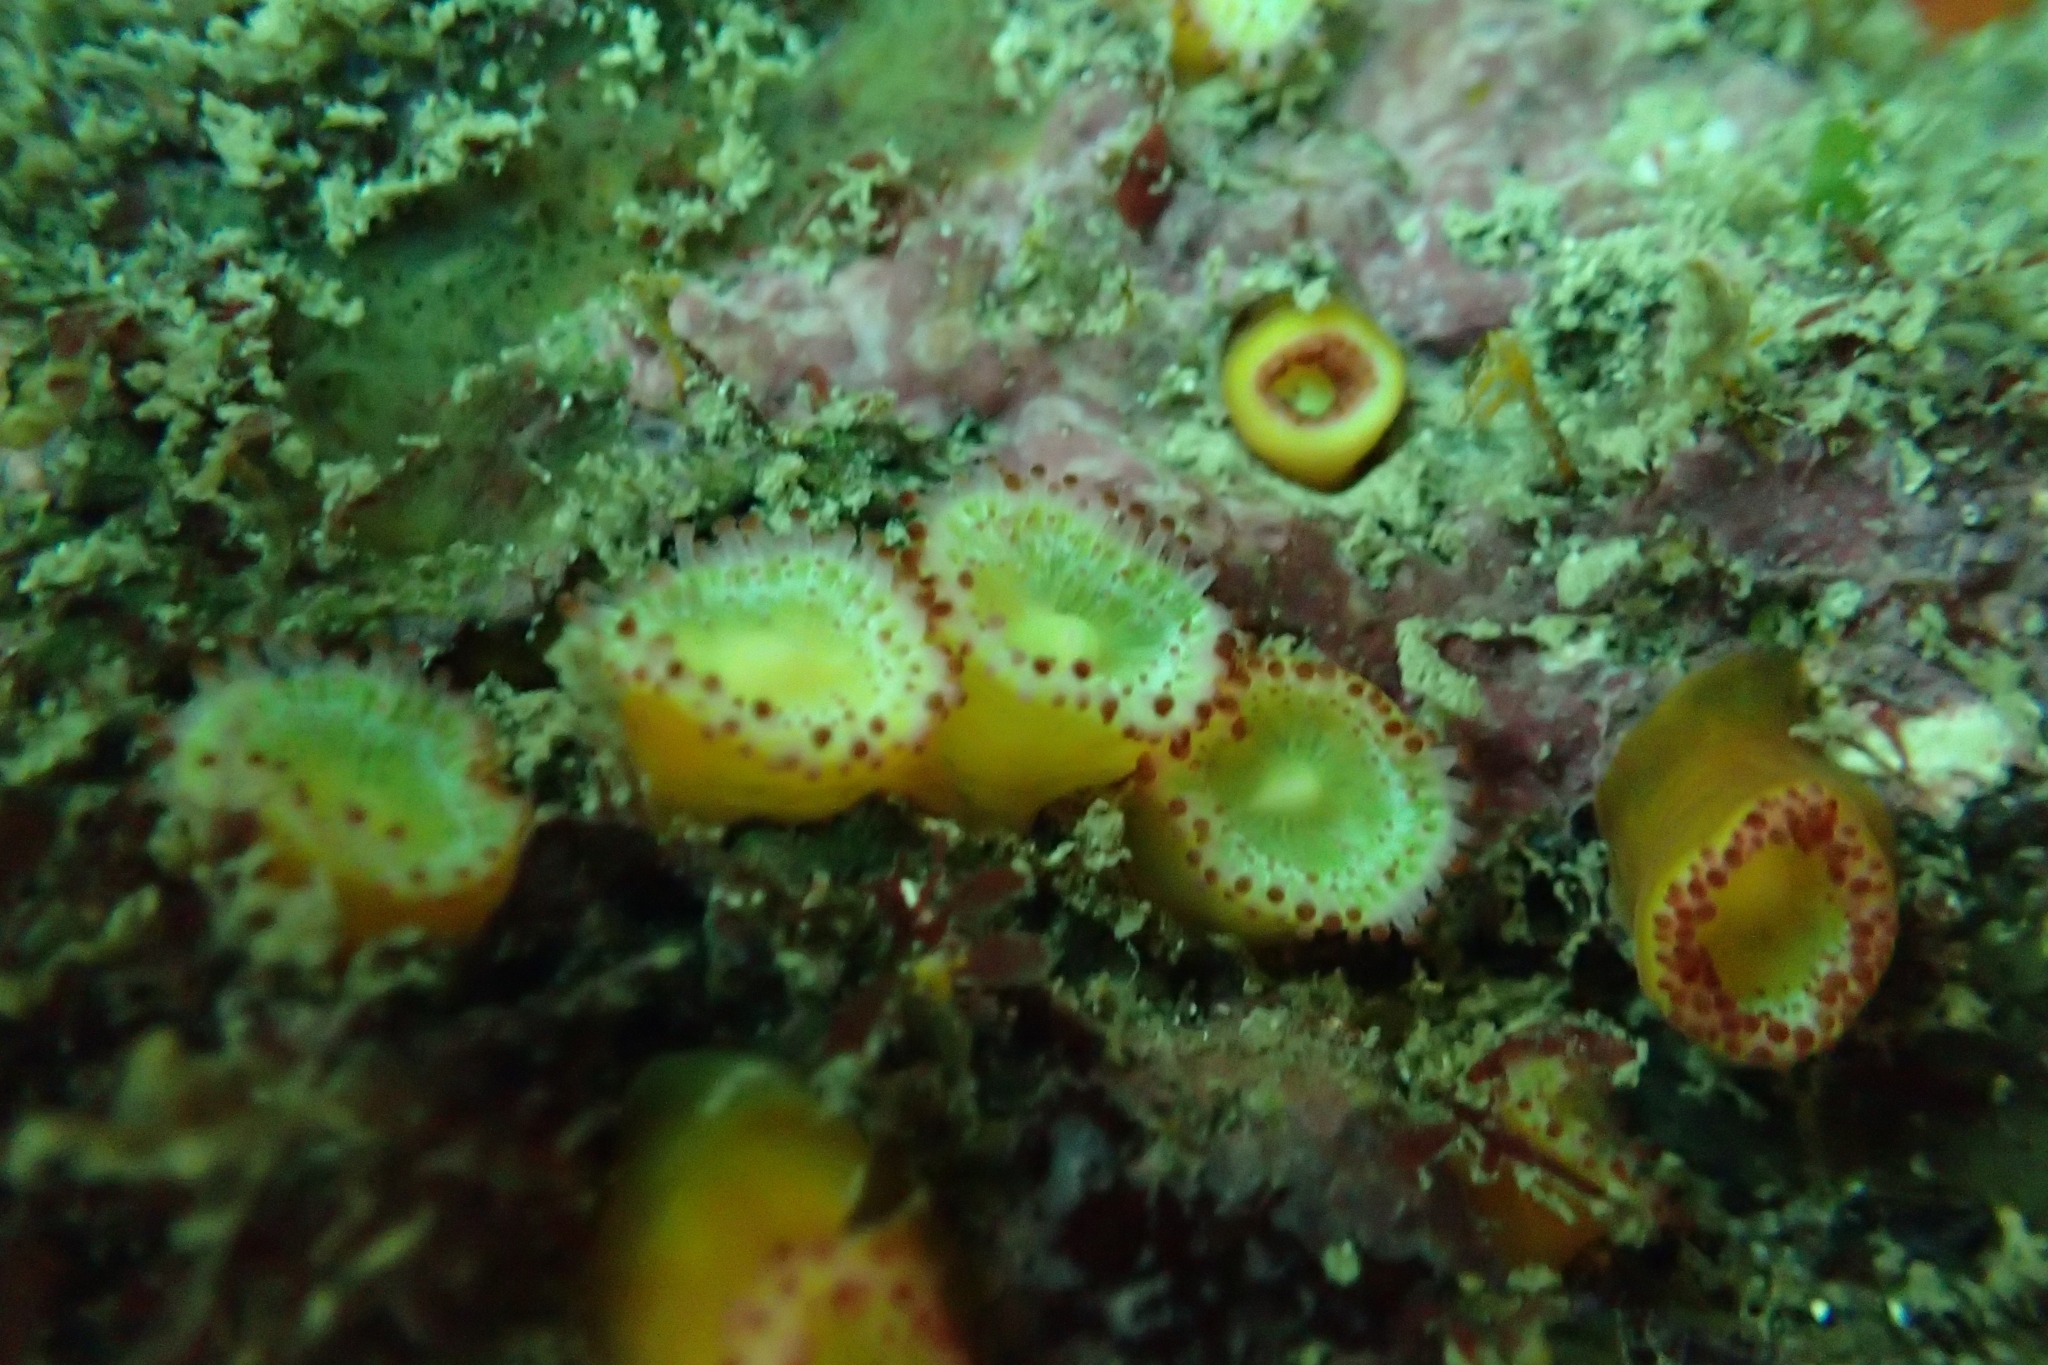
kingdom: Animalia
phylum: Cnidaria
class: Anthozoa
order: Corallimorpharia
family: Corallimorphidae
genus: Corynactis
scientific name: Corynactis australis
